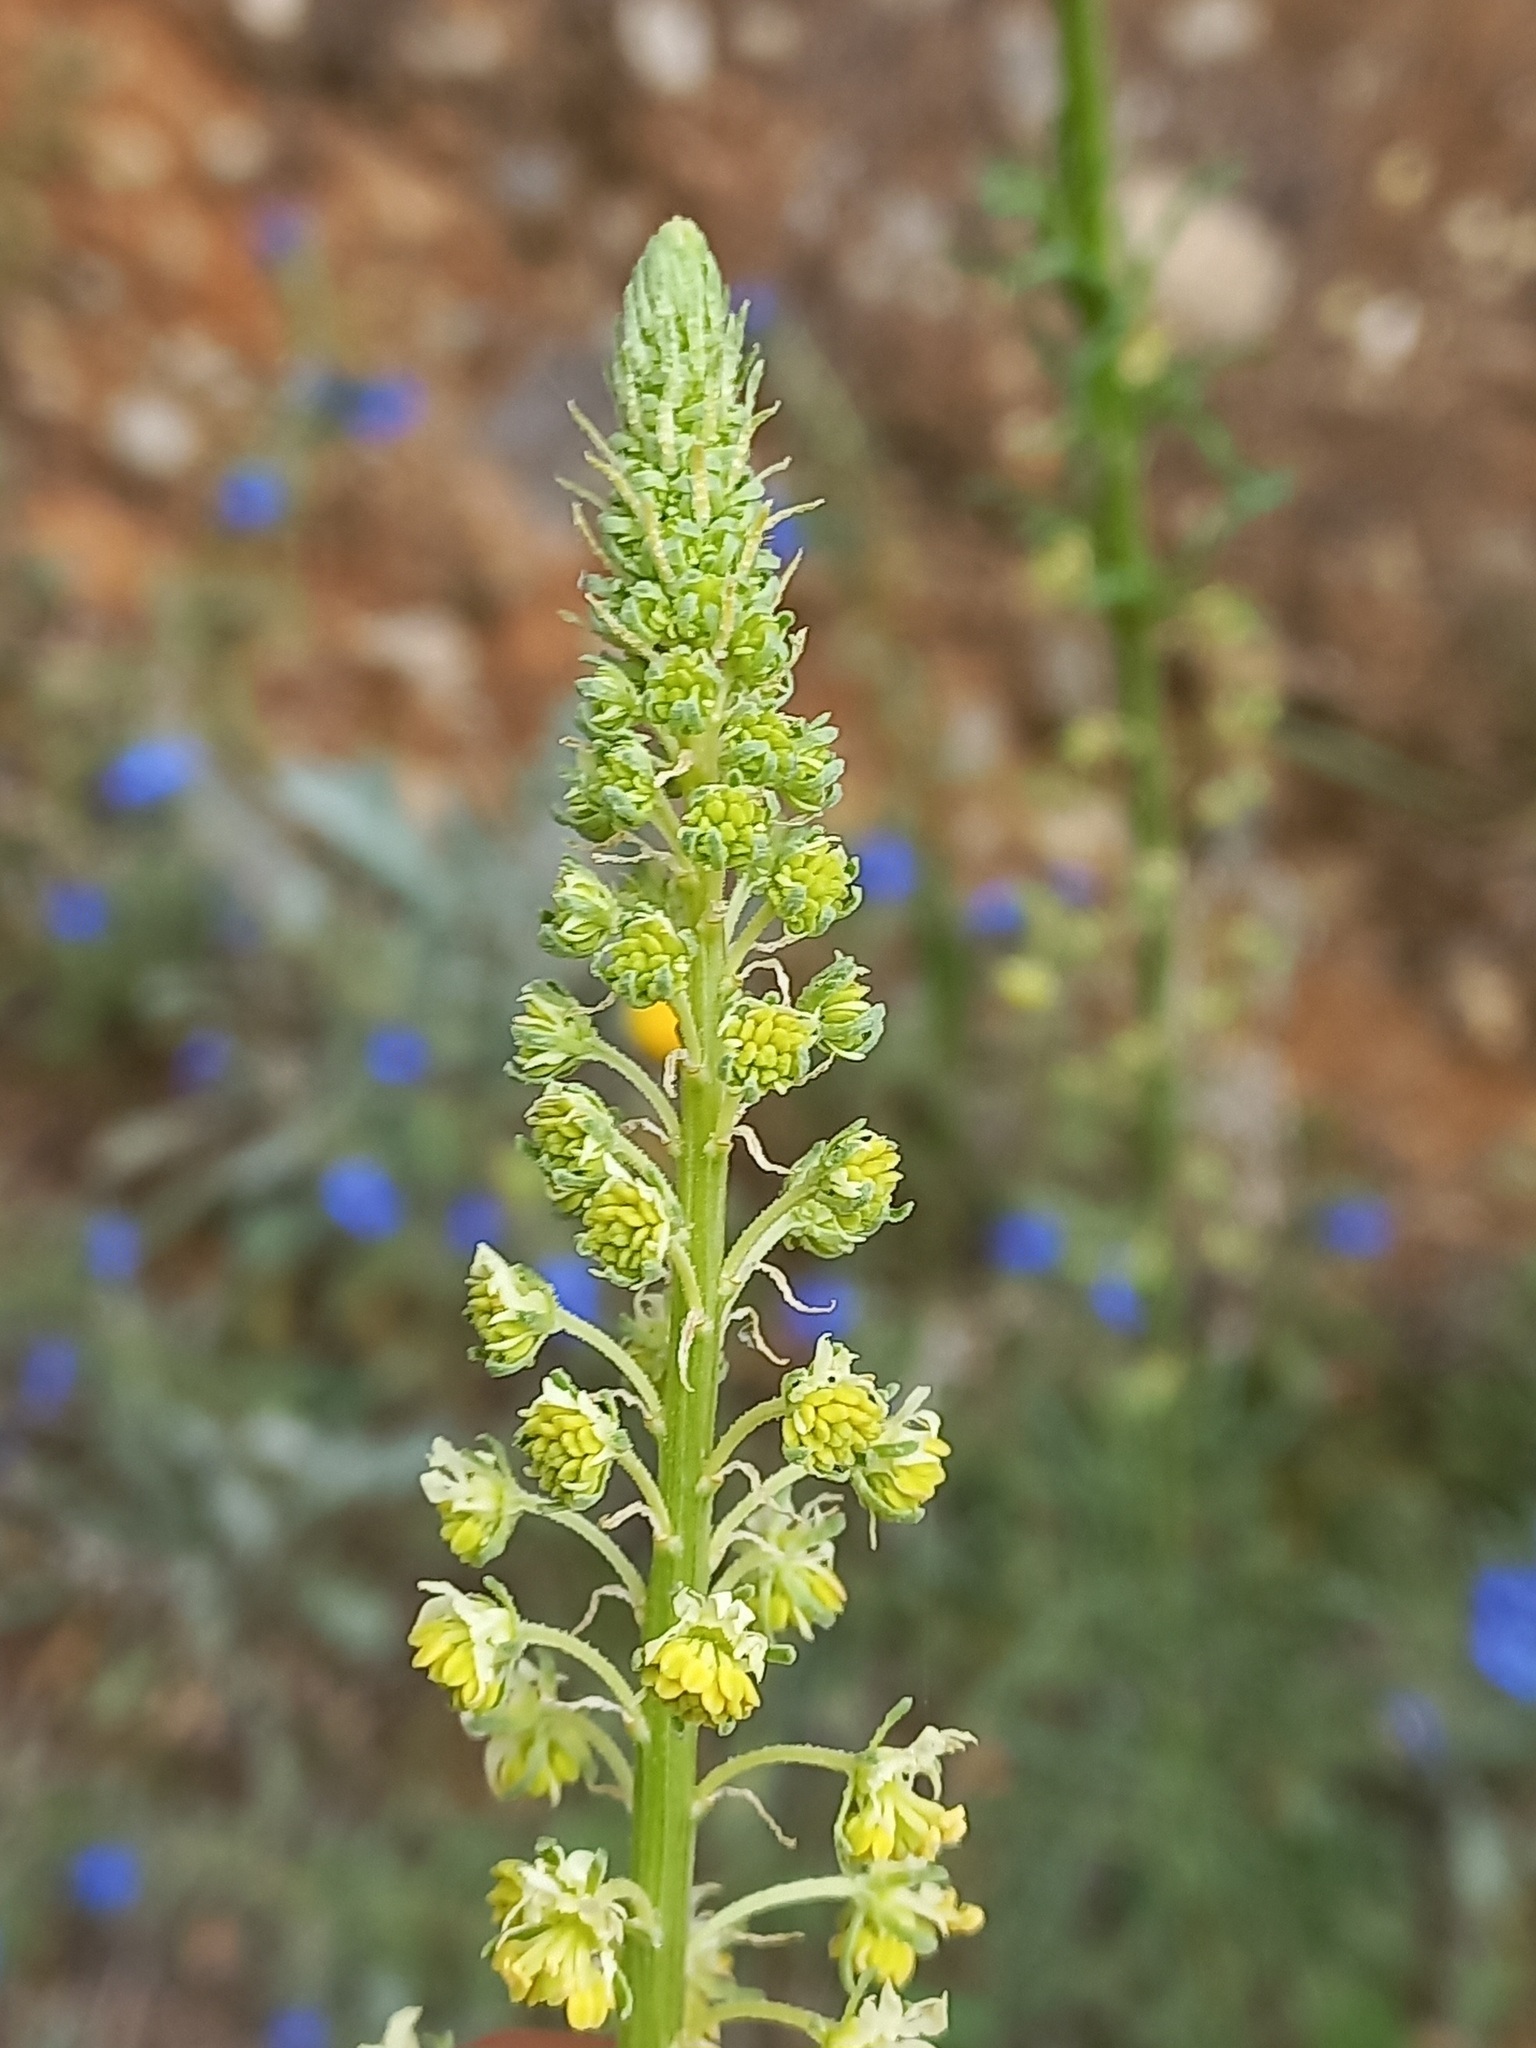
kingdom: Plantae
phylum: Tracheophyta
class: Magnoliopsida
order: Brassicales
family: Resedaceae
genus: Reseda
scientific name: Reseda lutea
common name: Wild mignonette
